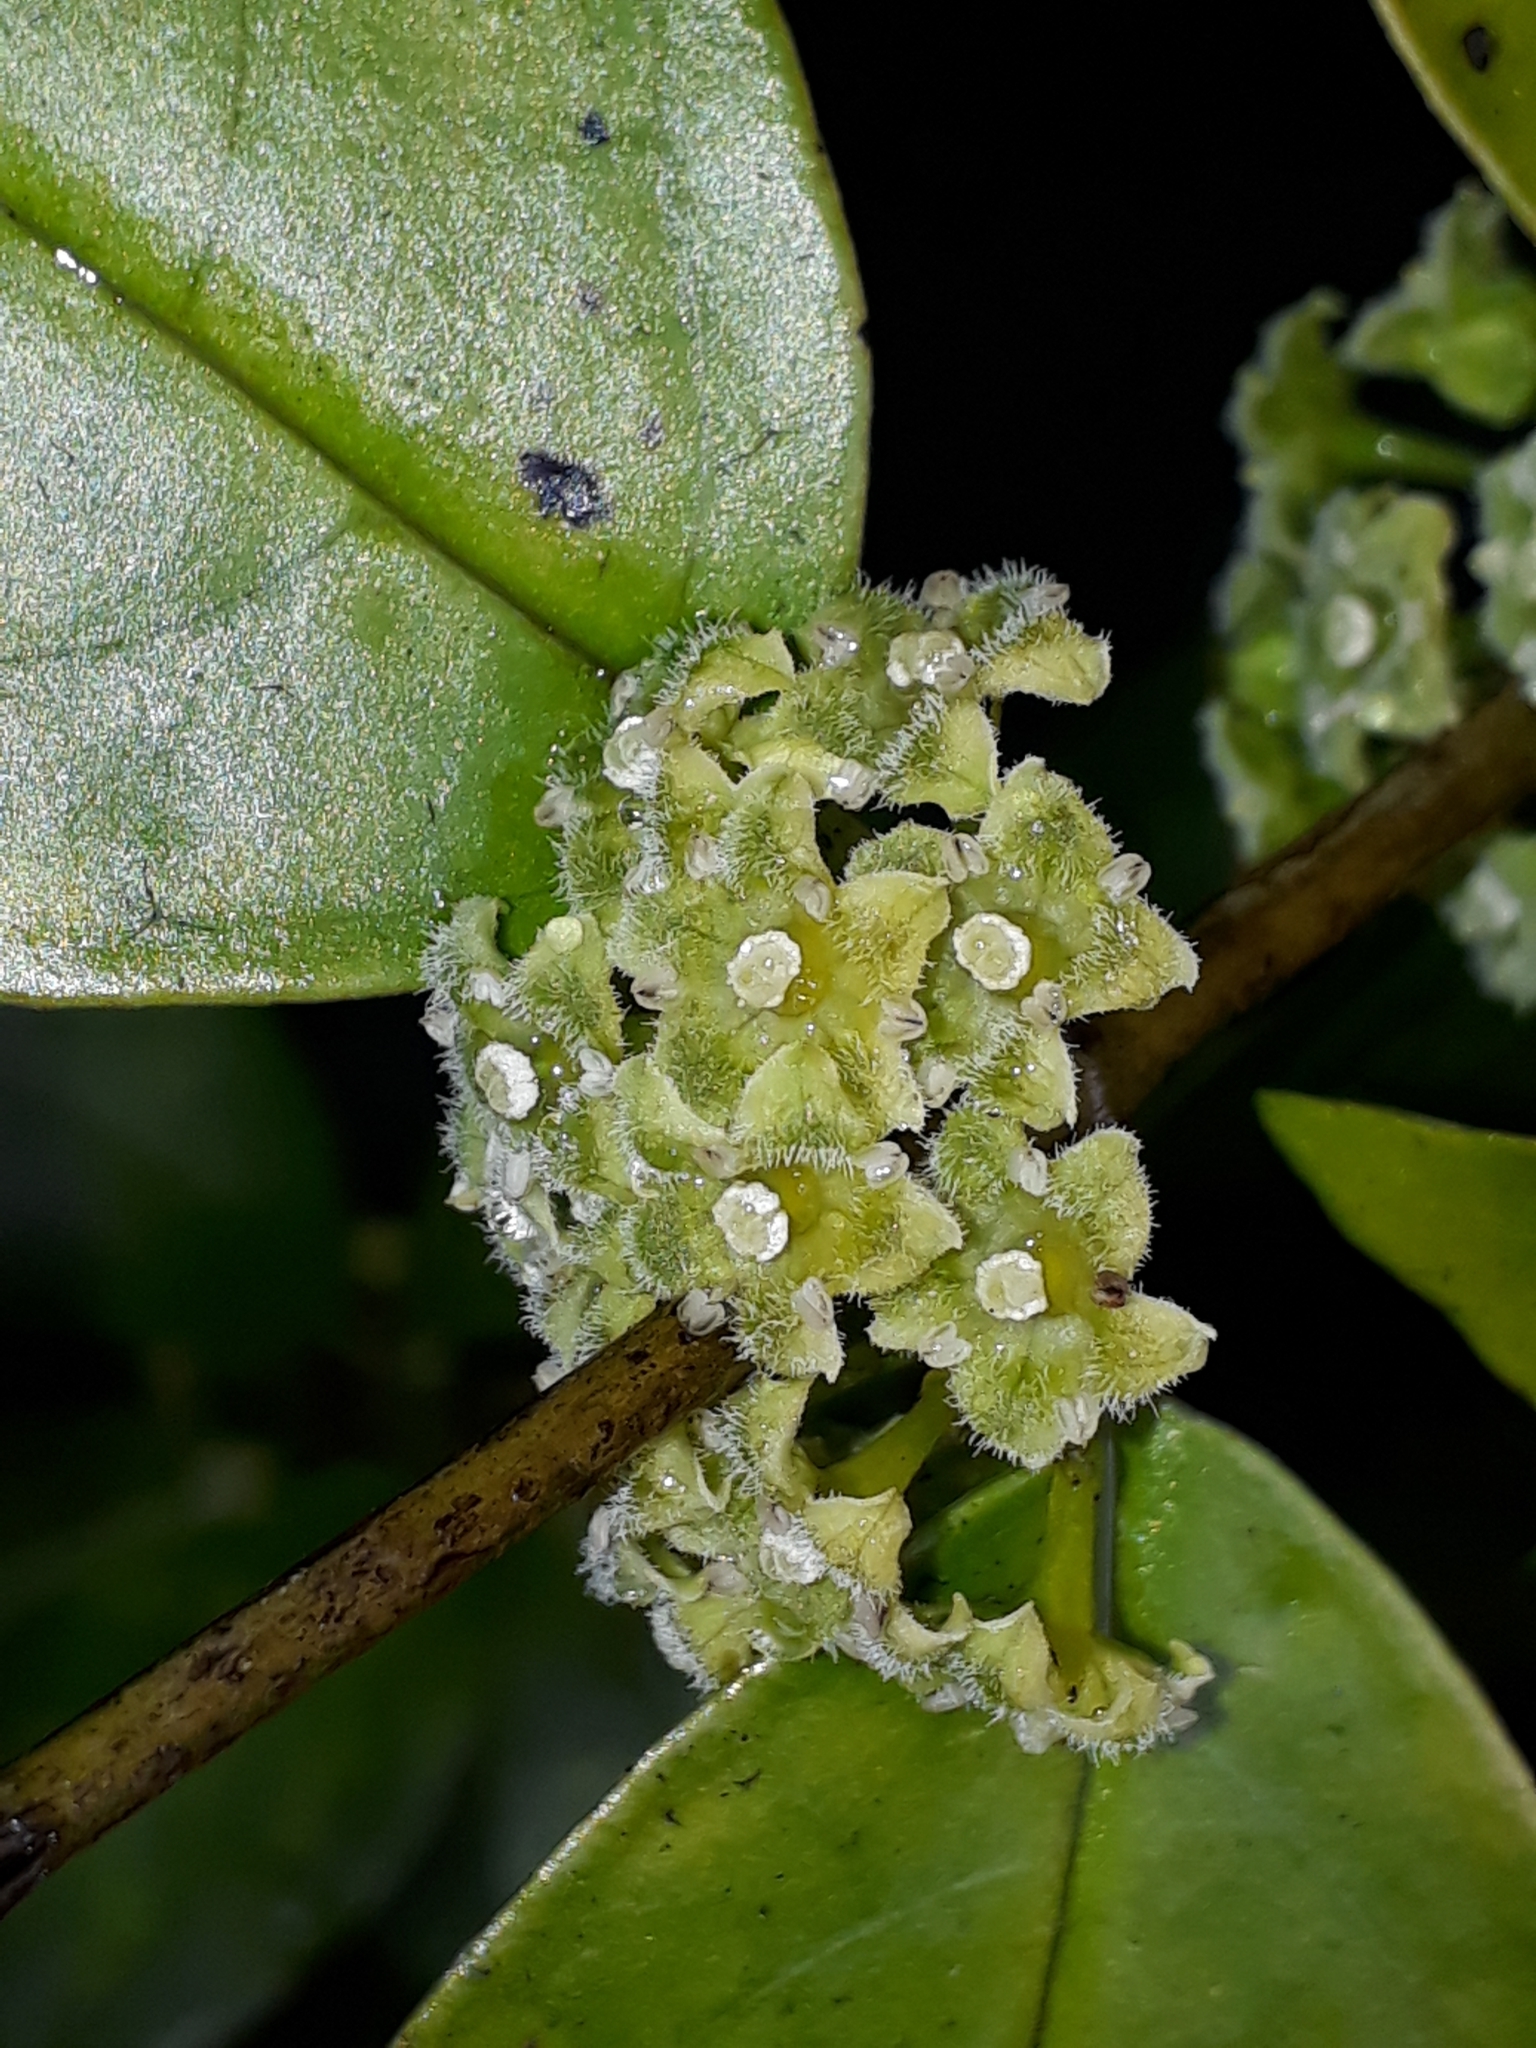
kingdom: Plantae
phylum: Tracheophyta
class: Magnoliopsida
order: Gentianales
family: Loganiaceae
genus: Geniostoma
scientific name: Geniostoma ligustrifolium
